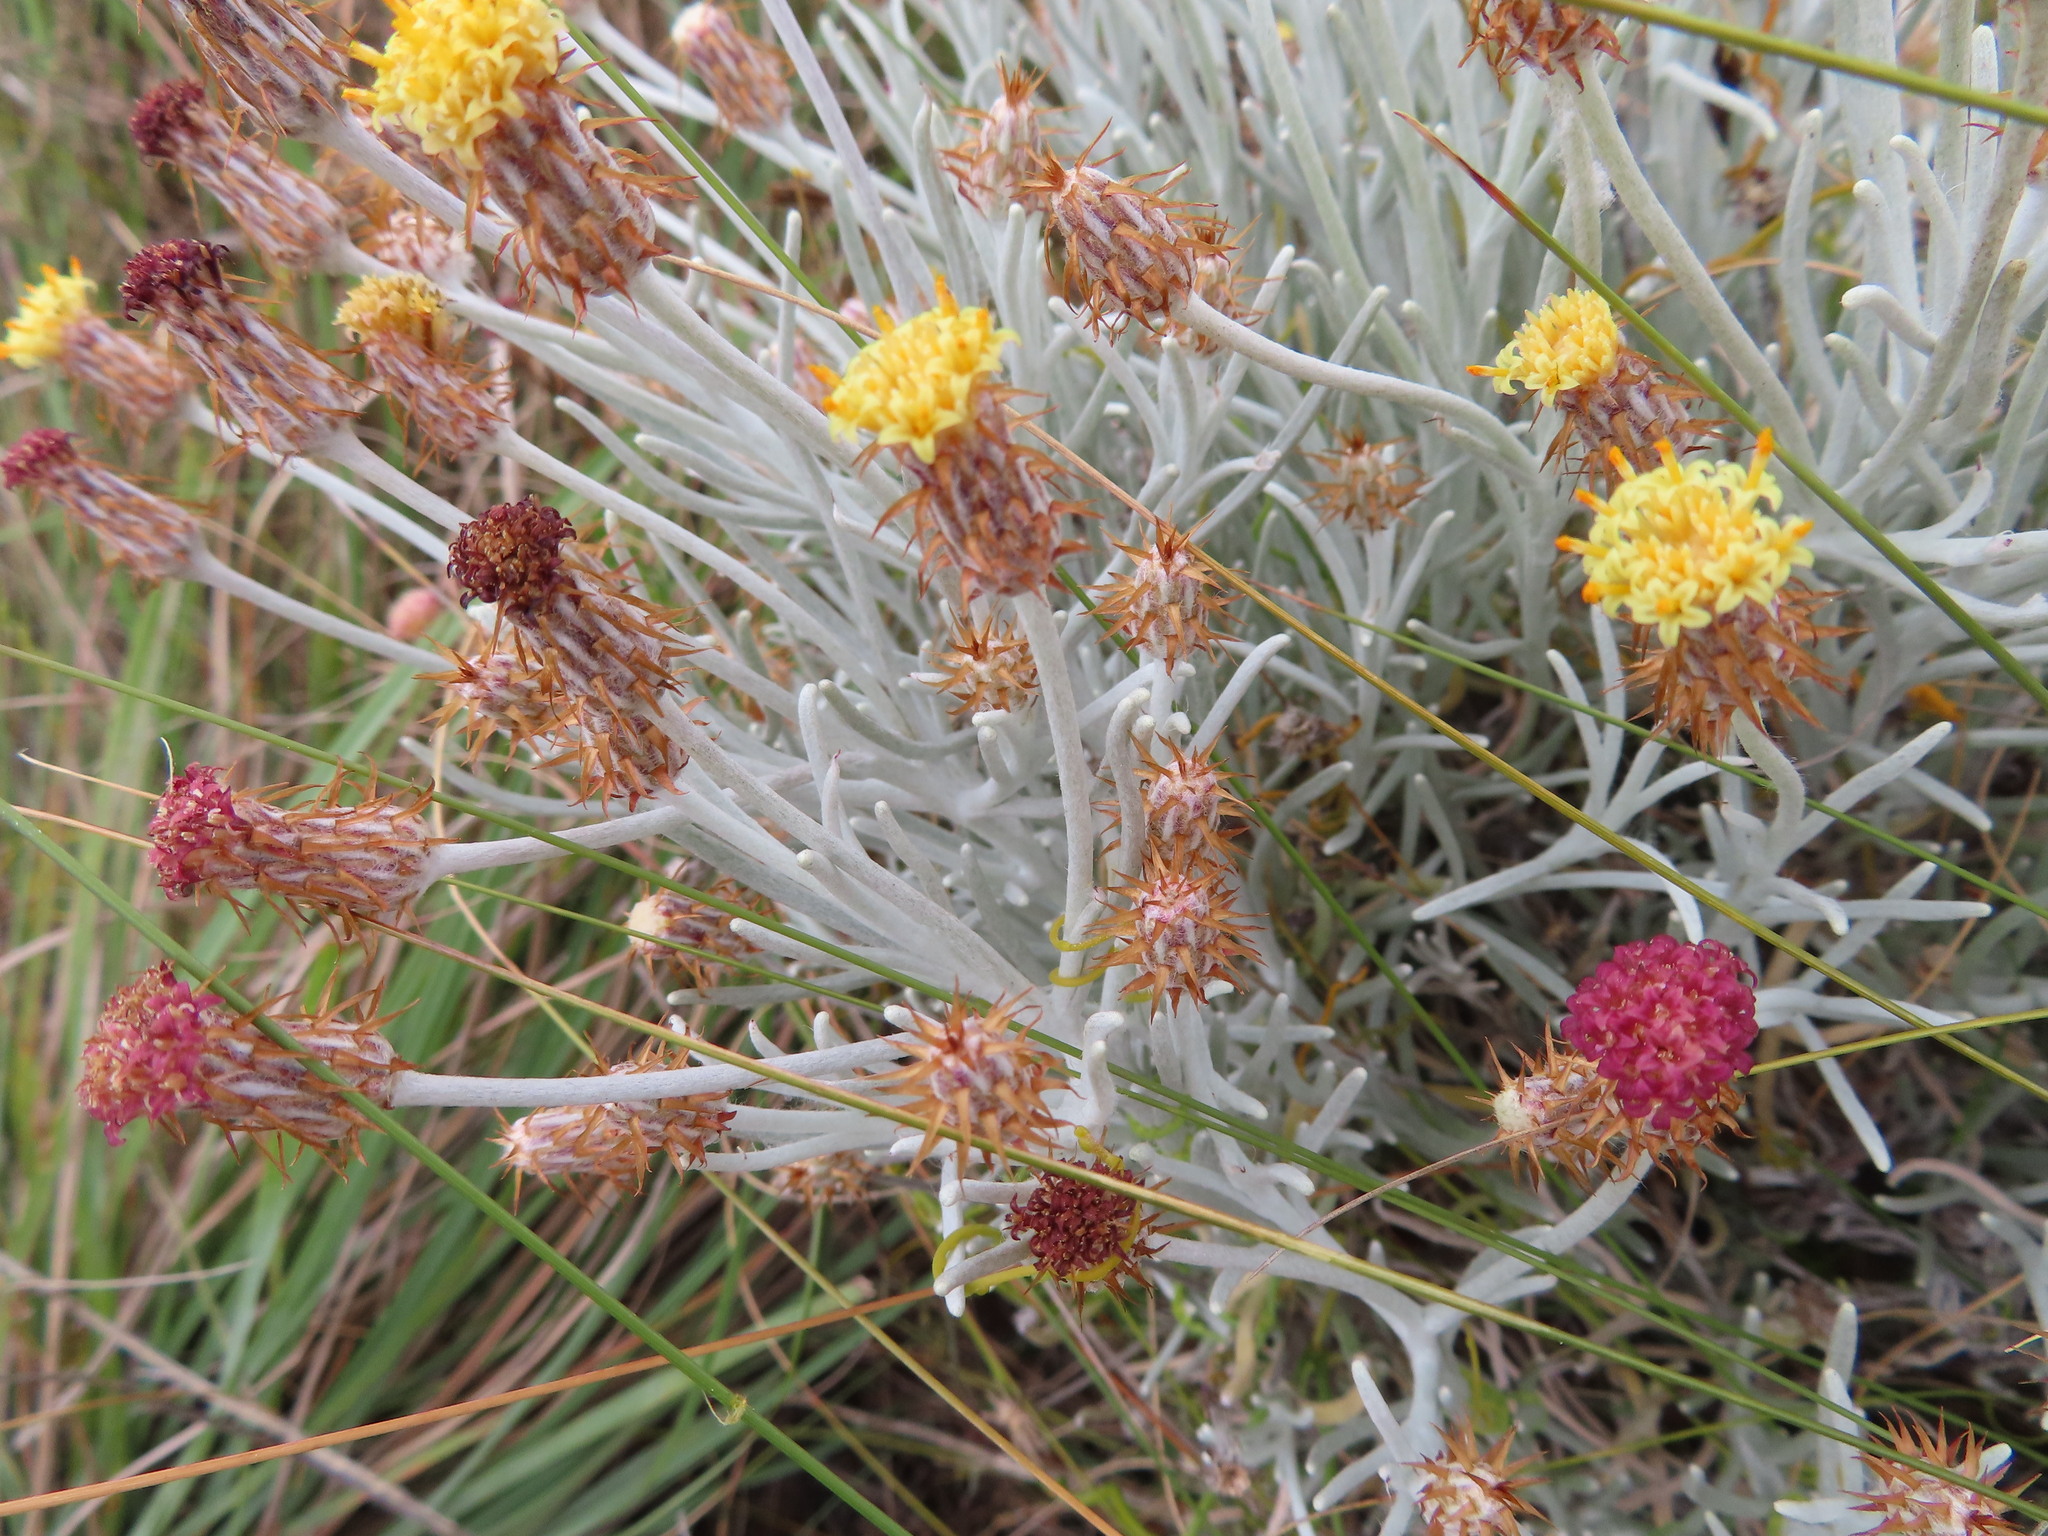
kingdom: Plantae
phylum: Tracheophyta
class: Magnoliopsida
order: Asterales
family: Asteraceae
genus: Syncarpha
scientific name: Syncarpha gnaphaloides
